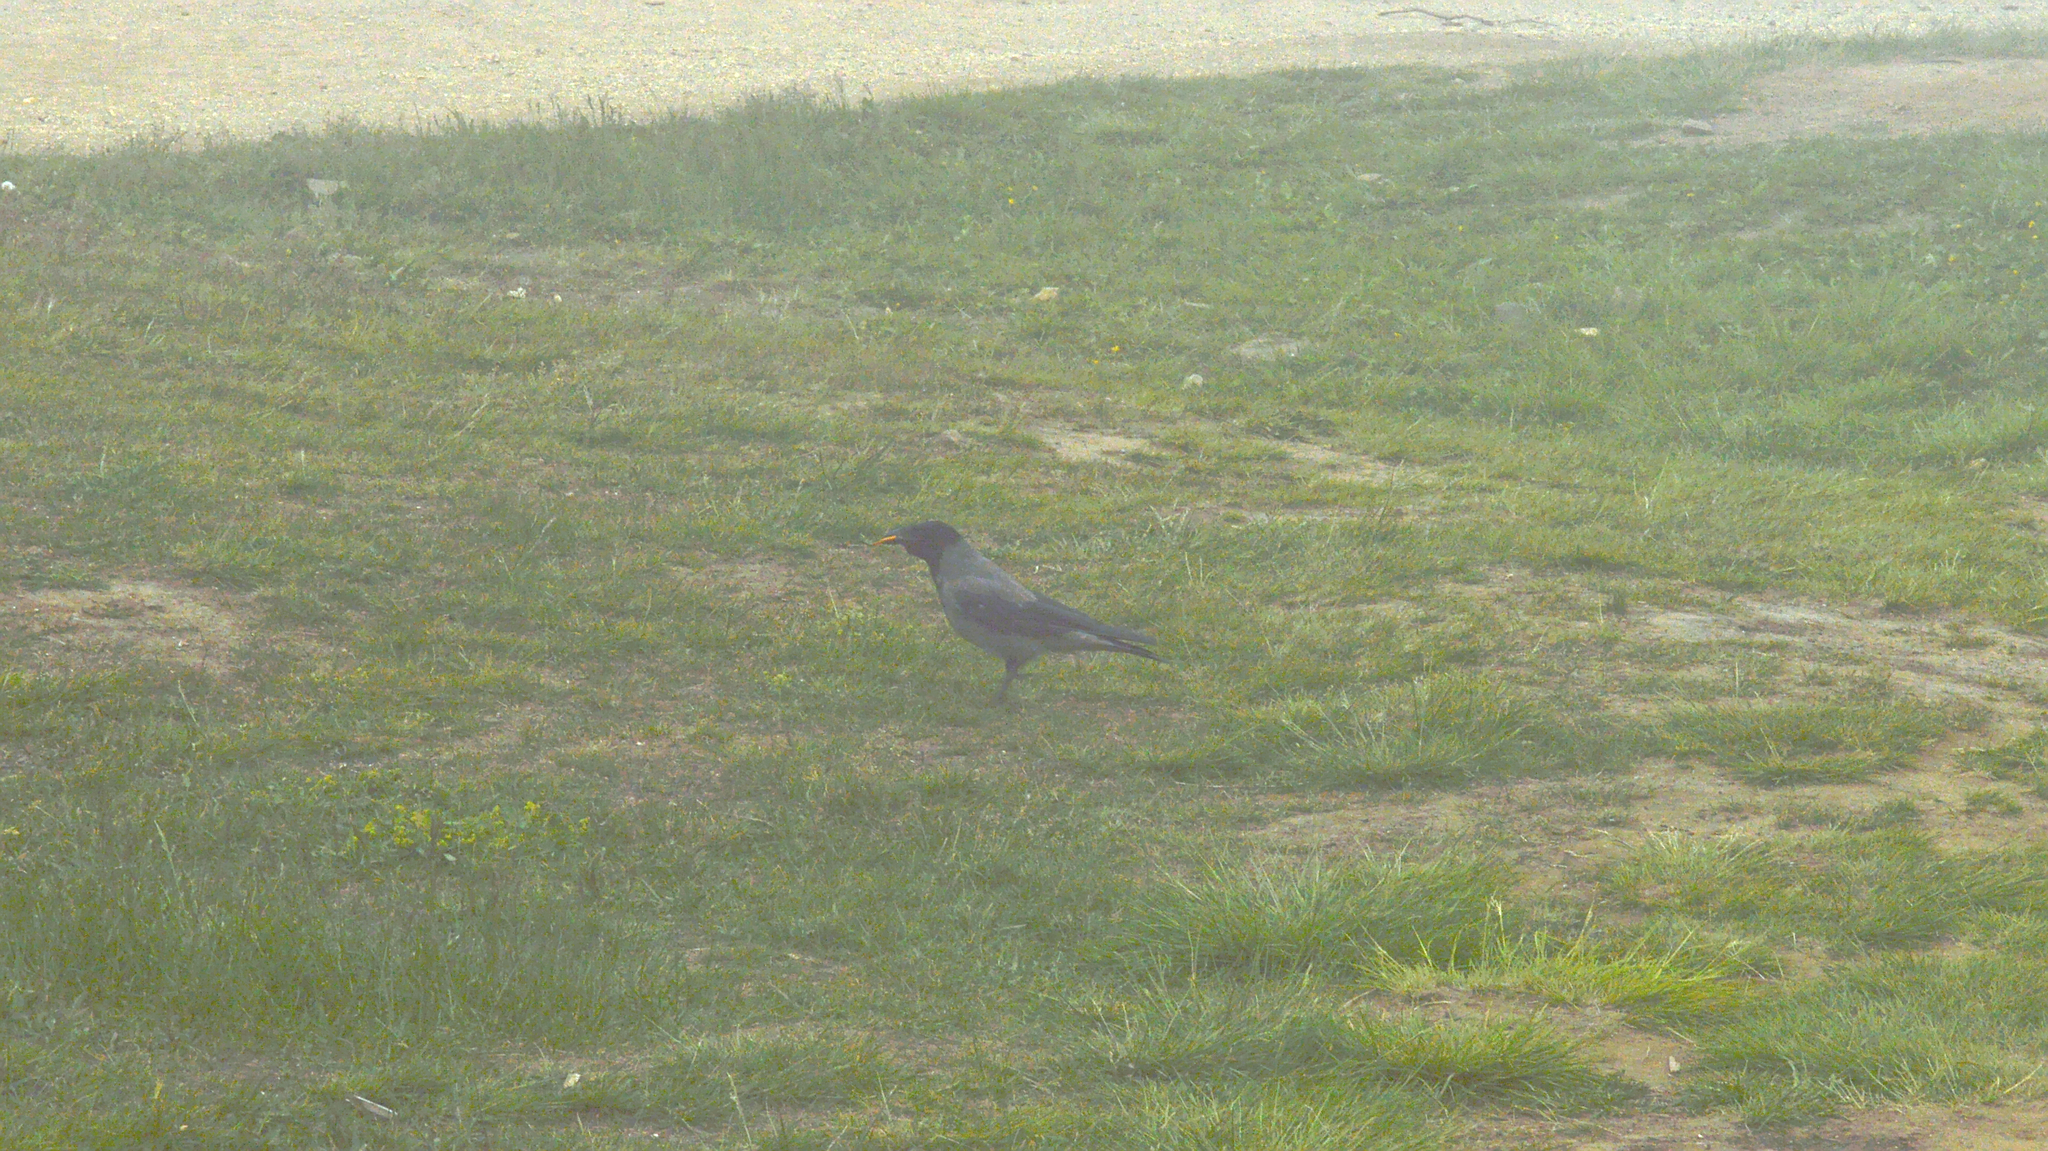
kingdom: Animalia
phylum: Chordata
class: Aves
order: Passeriformes
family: Corvidae
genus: Corvus
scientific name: Corvus cornix
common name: Hooded crow
